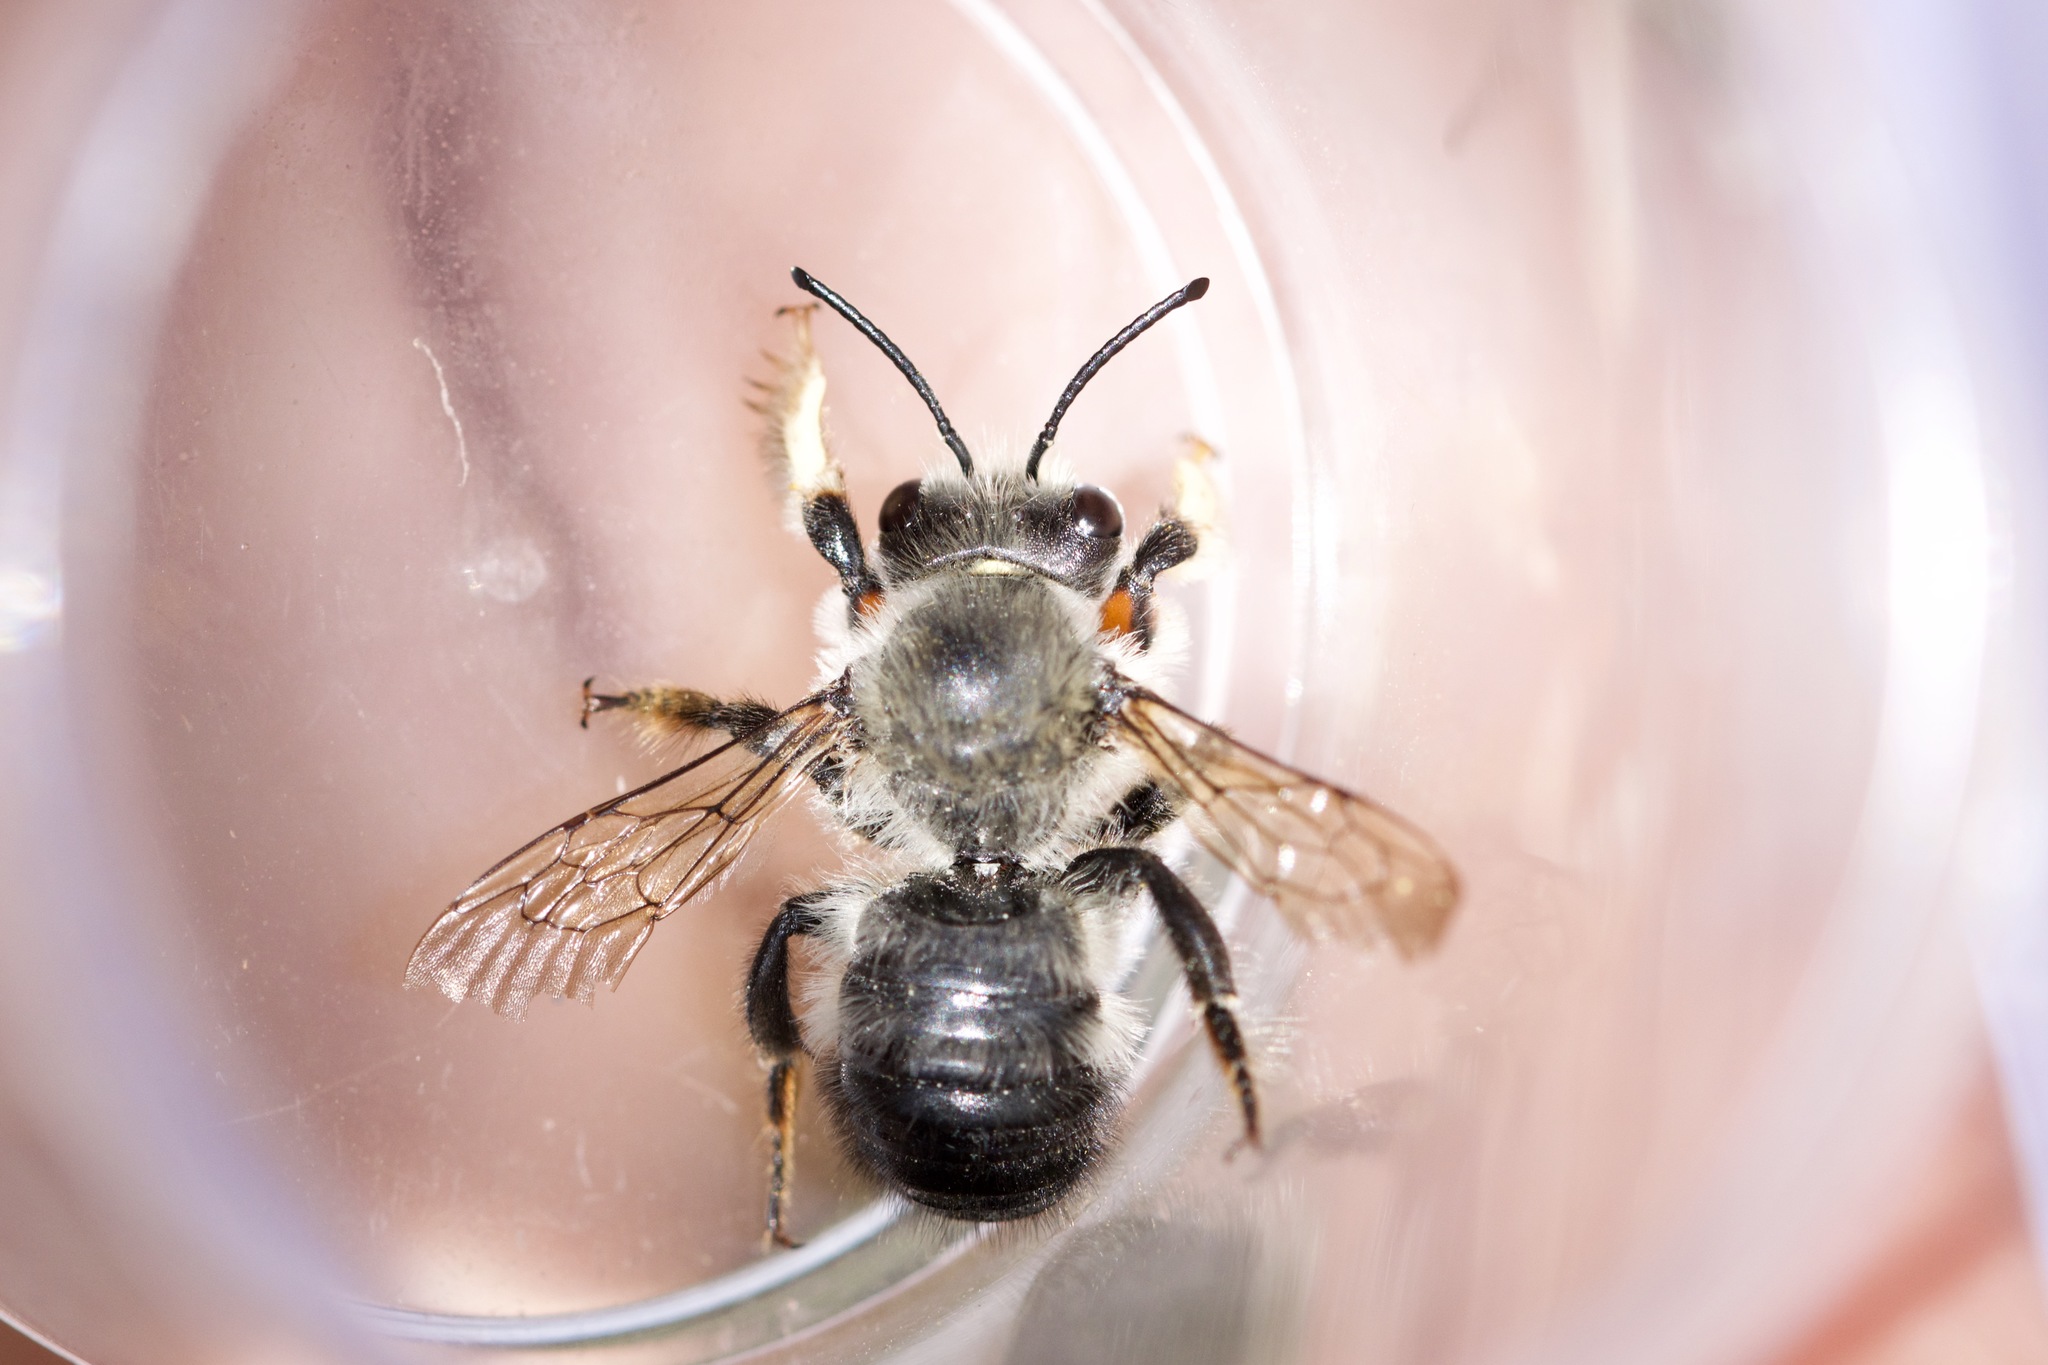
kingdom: Animalia
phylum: Arthropoda
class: Insecta
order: Hymenoptera
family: Megachilidae
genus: Megachile
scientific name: Megachile melanophaea
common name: Black-and-gray leafcutter bee
